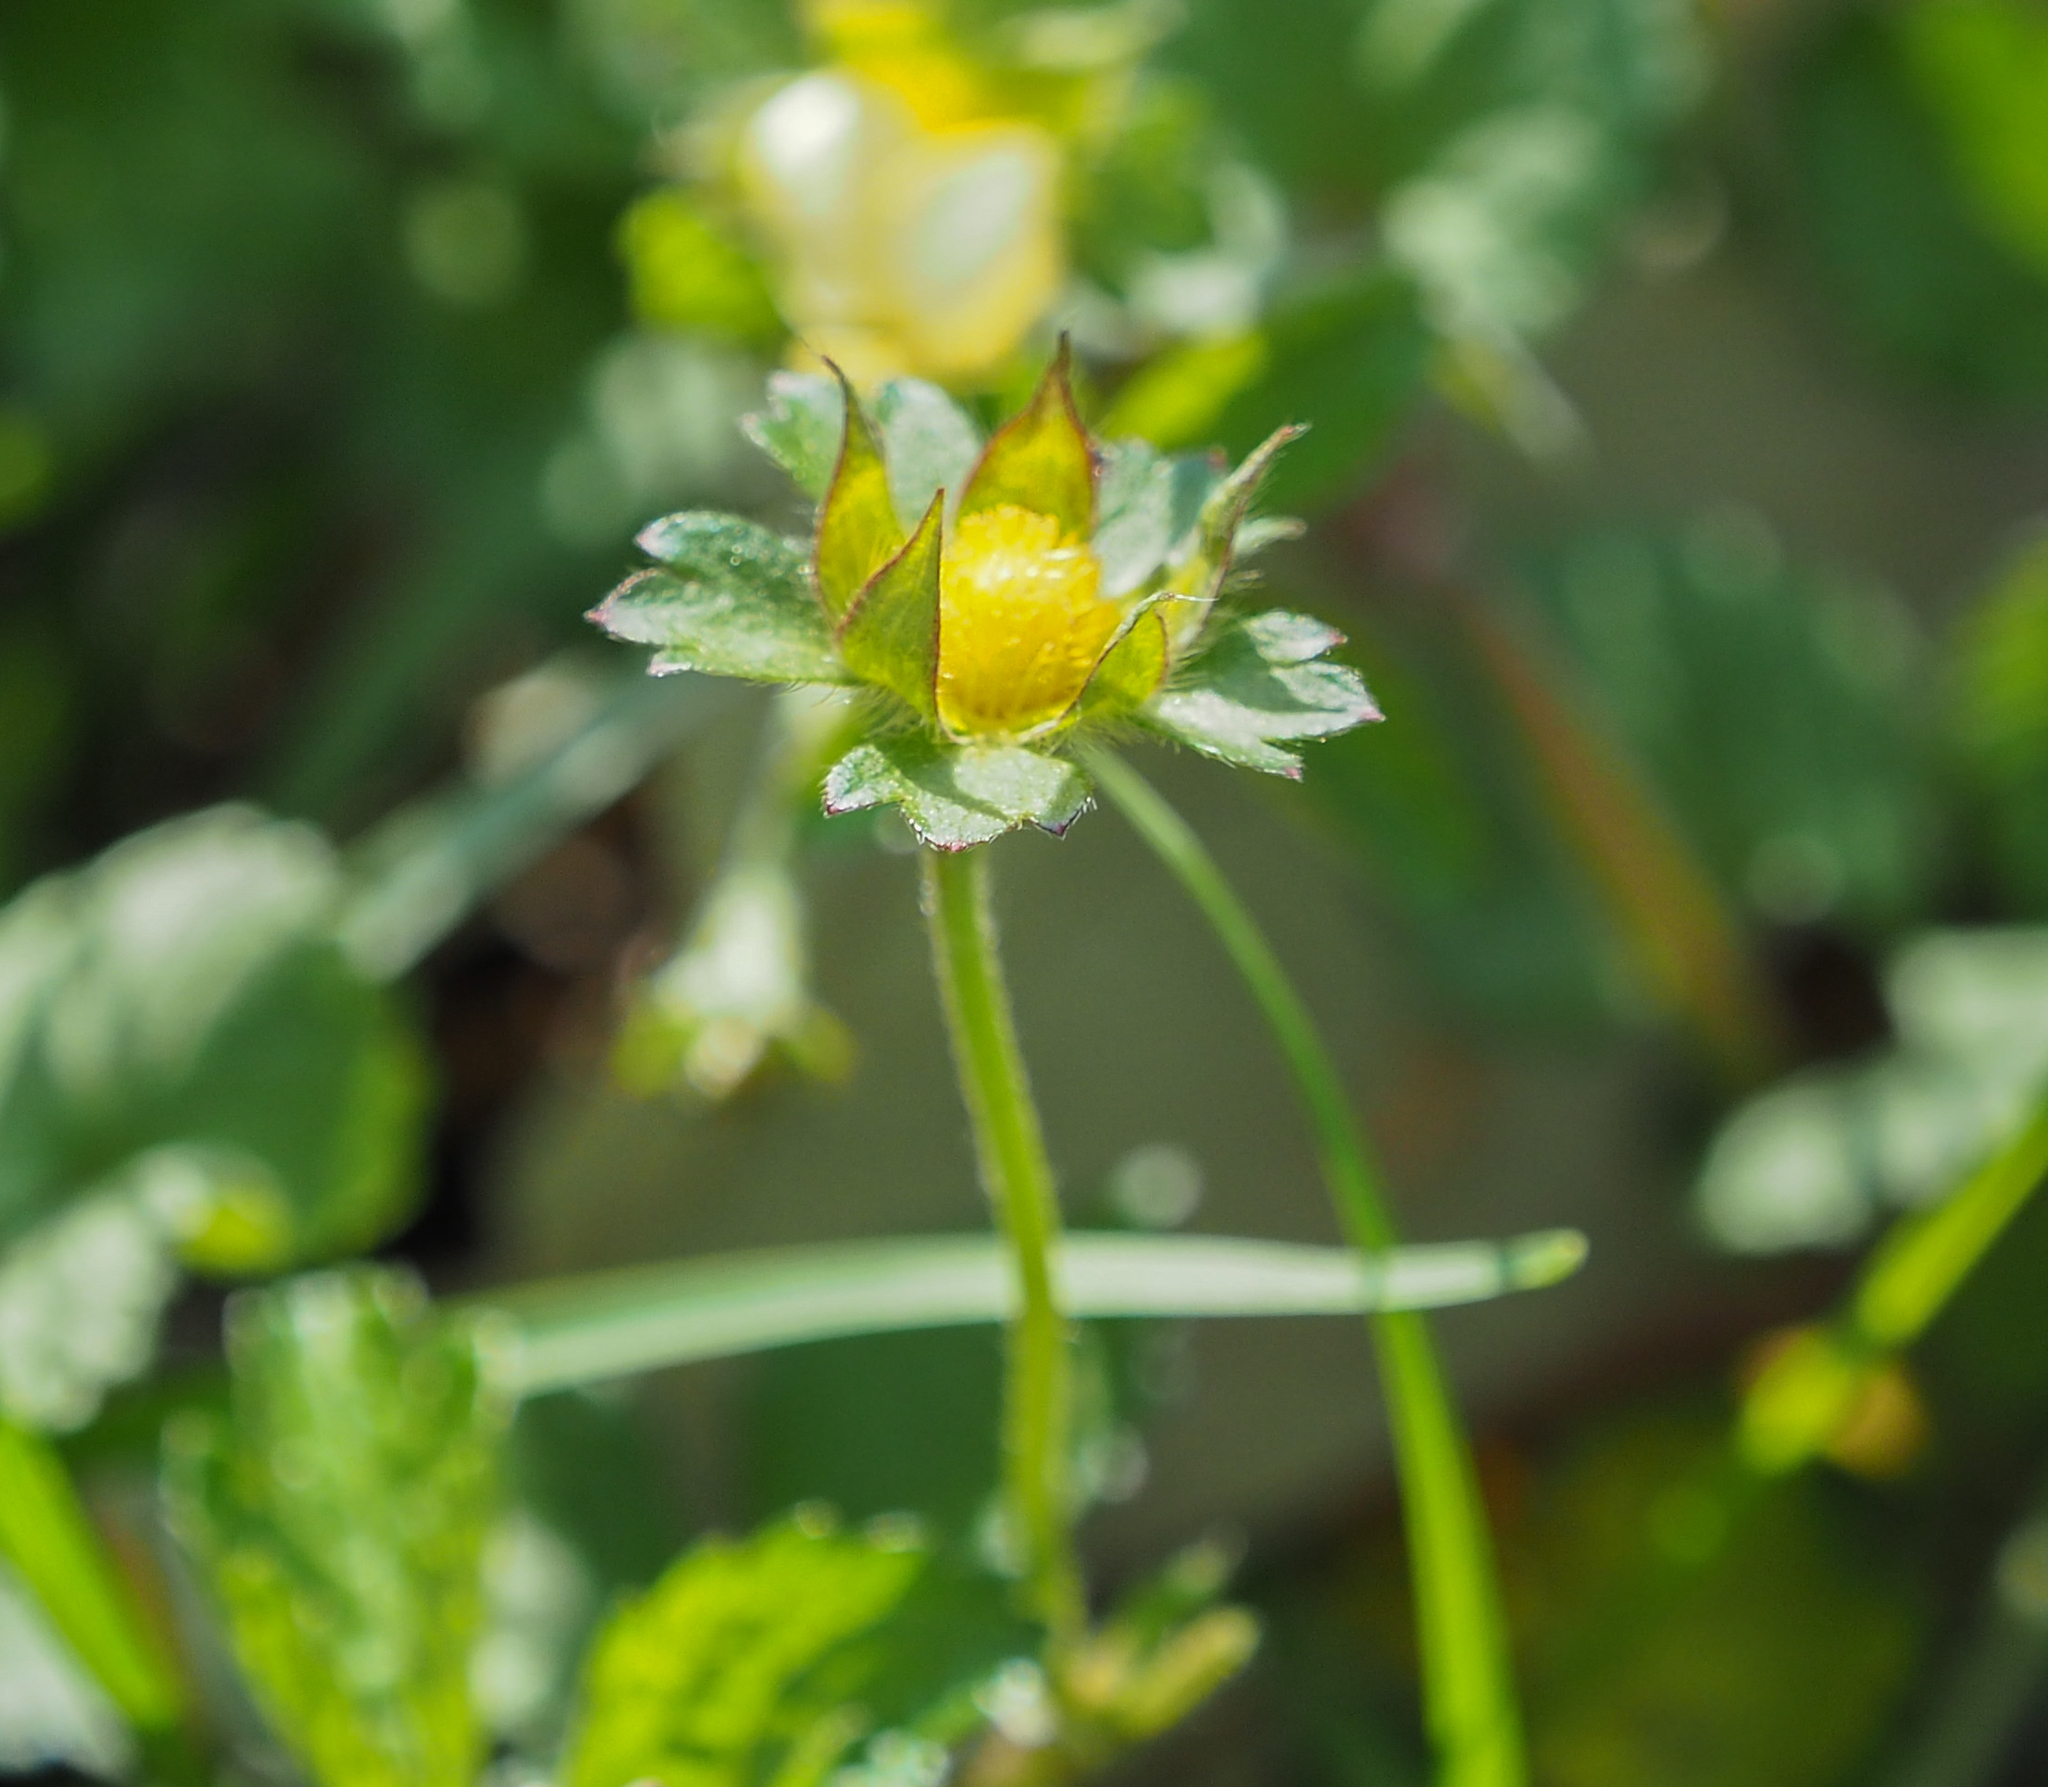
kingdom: Plantae
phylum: Tracheophyta
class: Magnoliopsida
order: Rosales
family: Rosaceae
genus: Potentilla
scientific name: Potentilla indica
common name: Yellow-flowered strawberry
